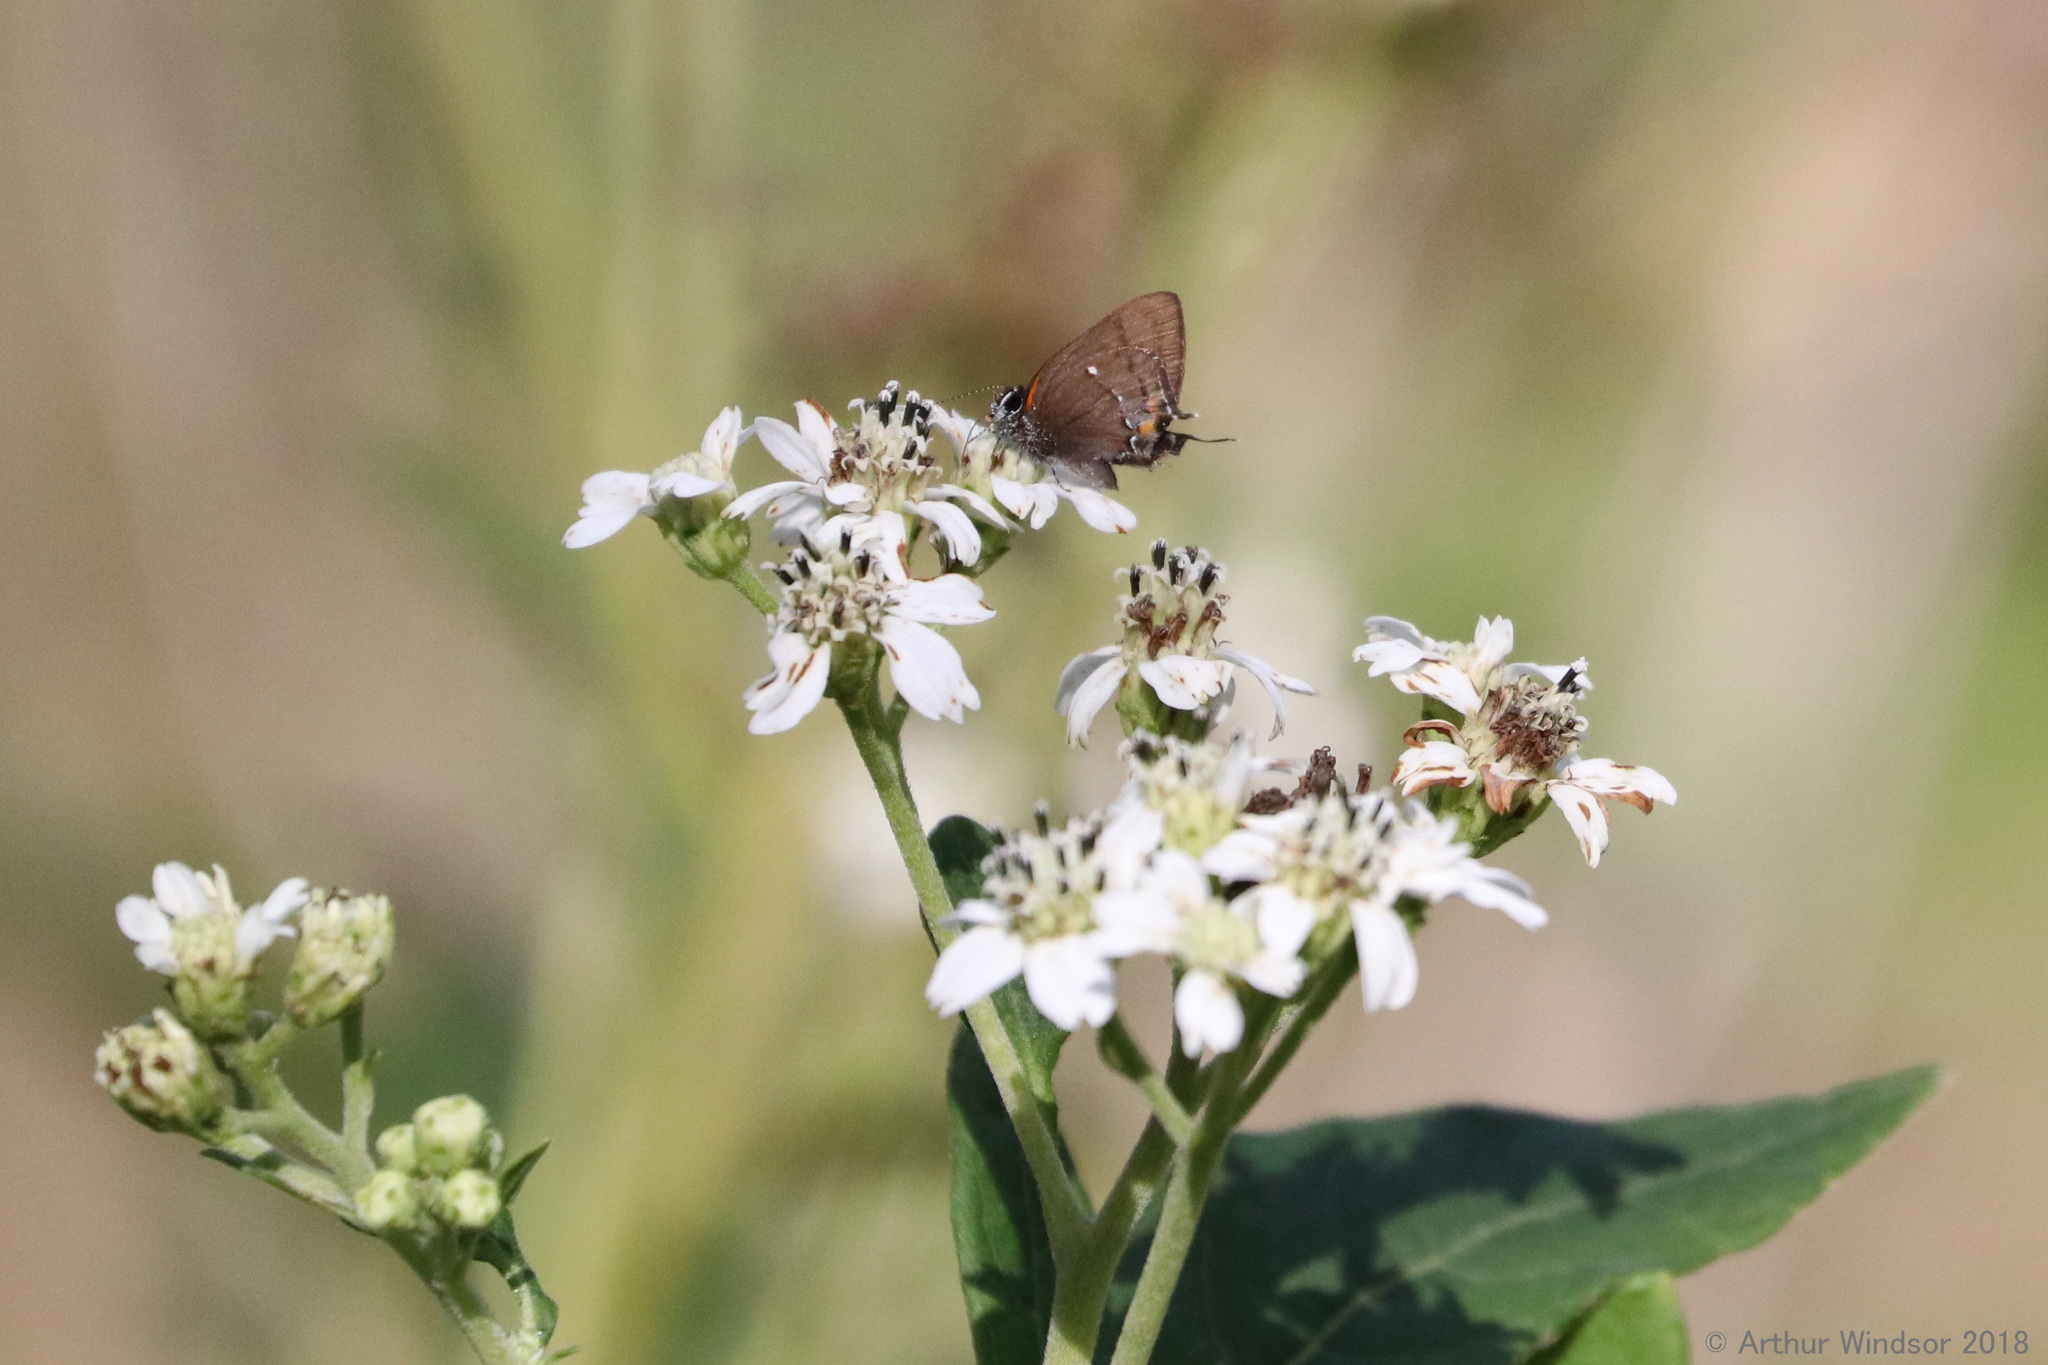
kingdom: Animalia
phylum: Arthropoda
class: Insecta
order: Lepidoptera
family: Lycaenidae
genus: Thecla
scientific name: Thecla angelia
